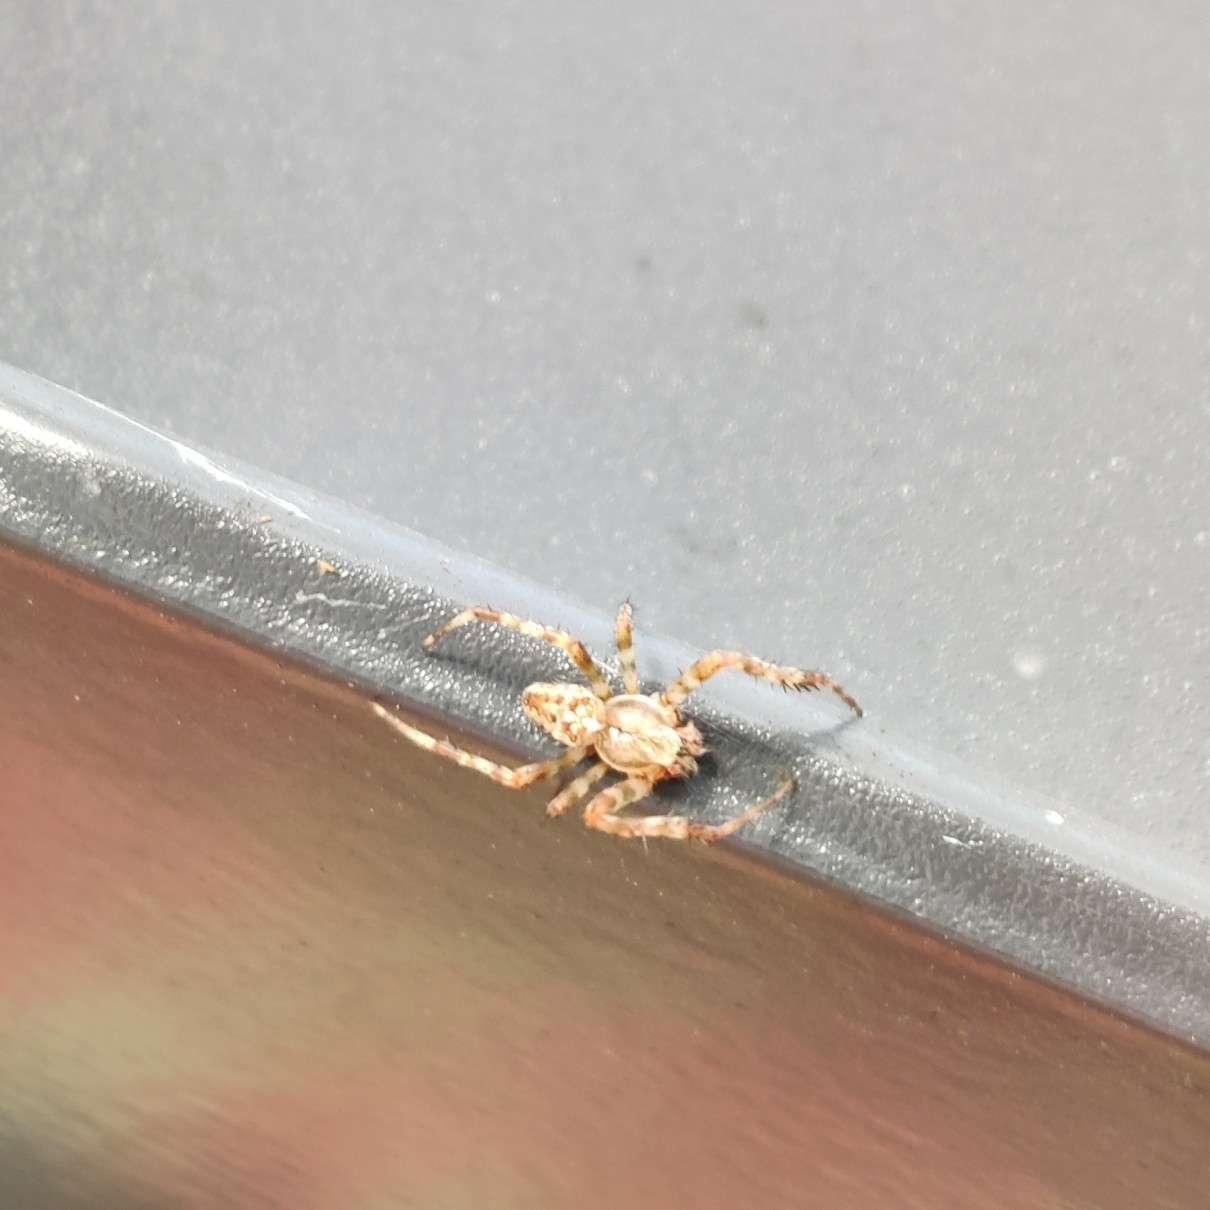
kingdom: Animalia
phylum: Arthropoda
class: Arachnida
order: Araneae
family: Araneidae
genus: Araneus
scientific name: Araneus diadematus
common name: Cross orbweaver
